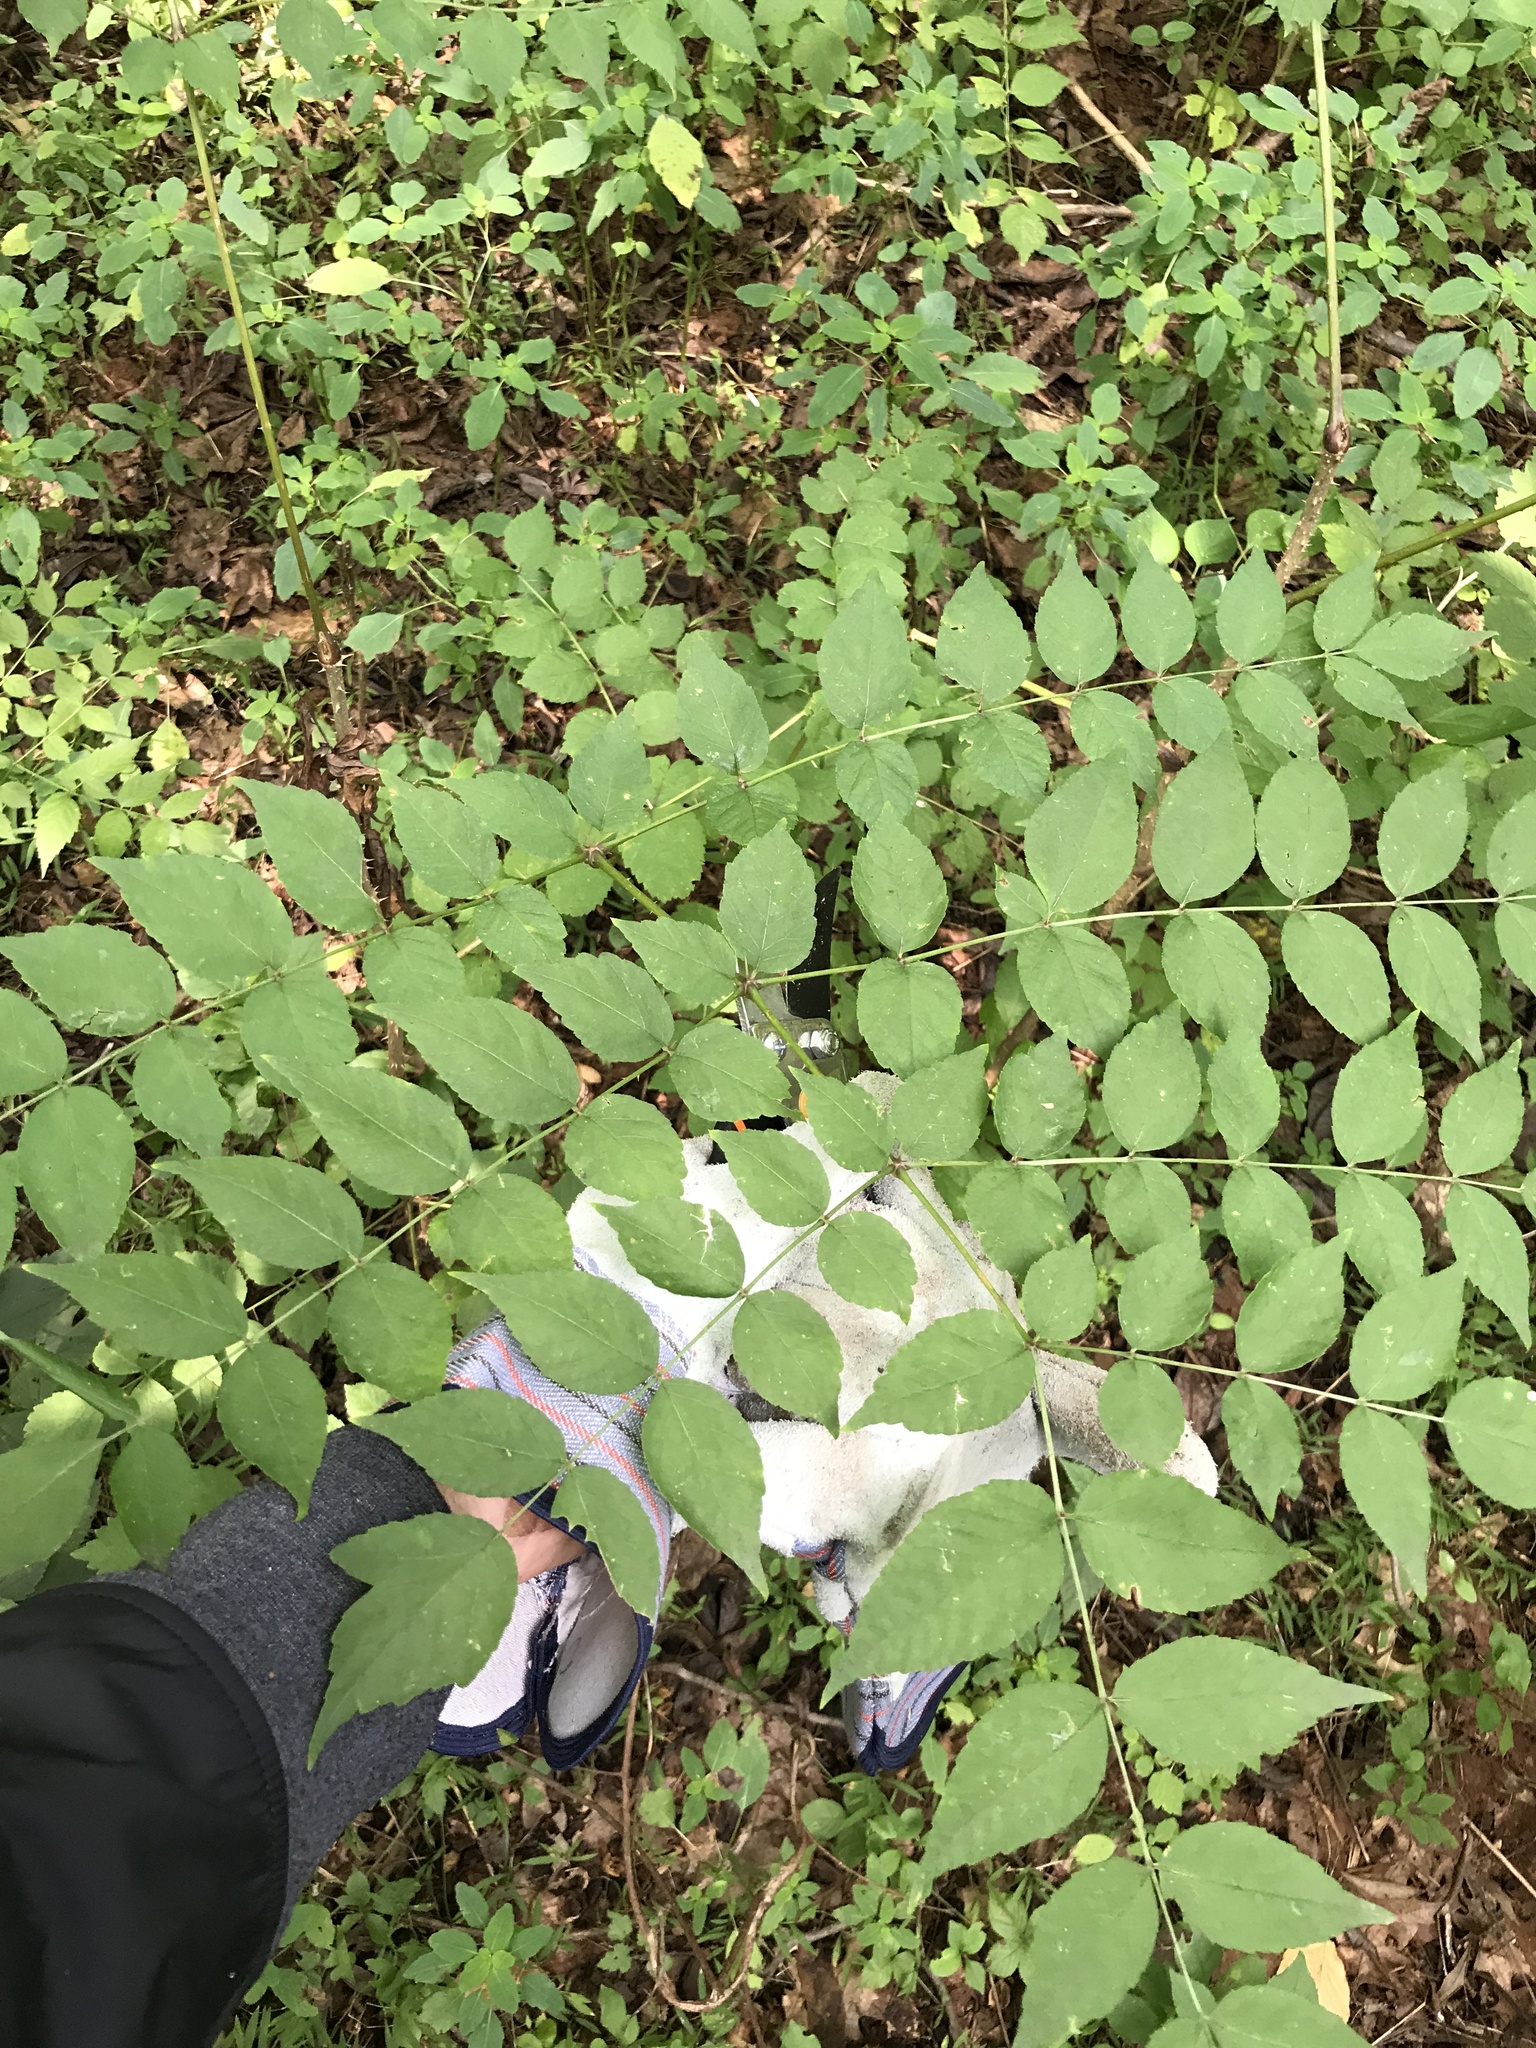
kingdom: Plantae
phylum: Tracheophyta
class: Magnoliopsida
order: Apiales
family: Araliaceae
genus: Aralia
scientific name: Aralia elata
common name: Japanese angelica-tree
